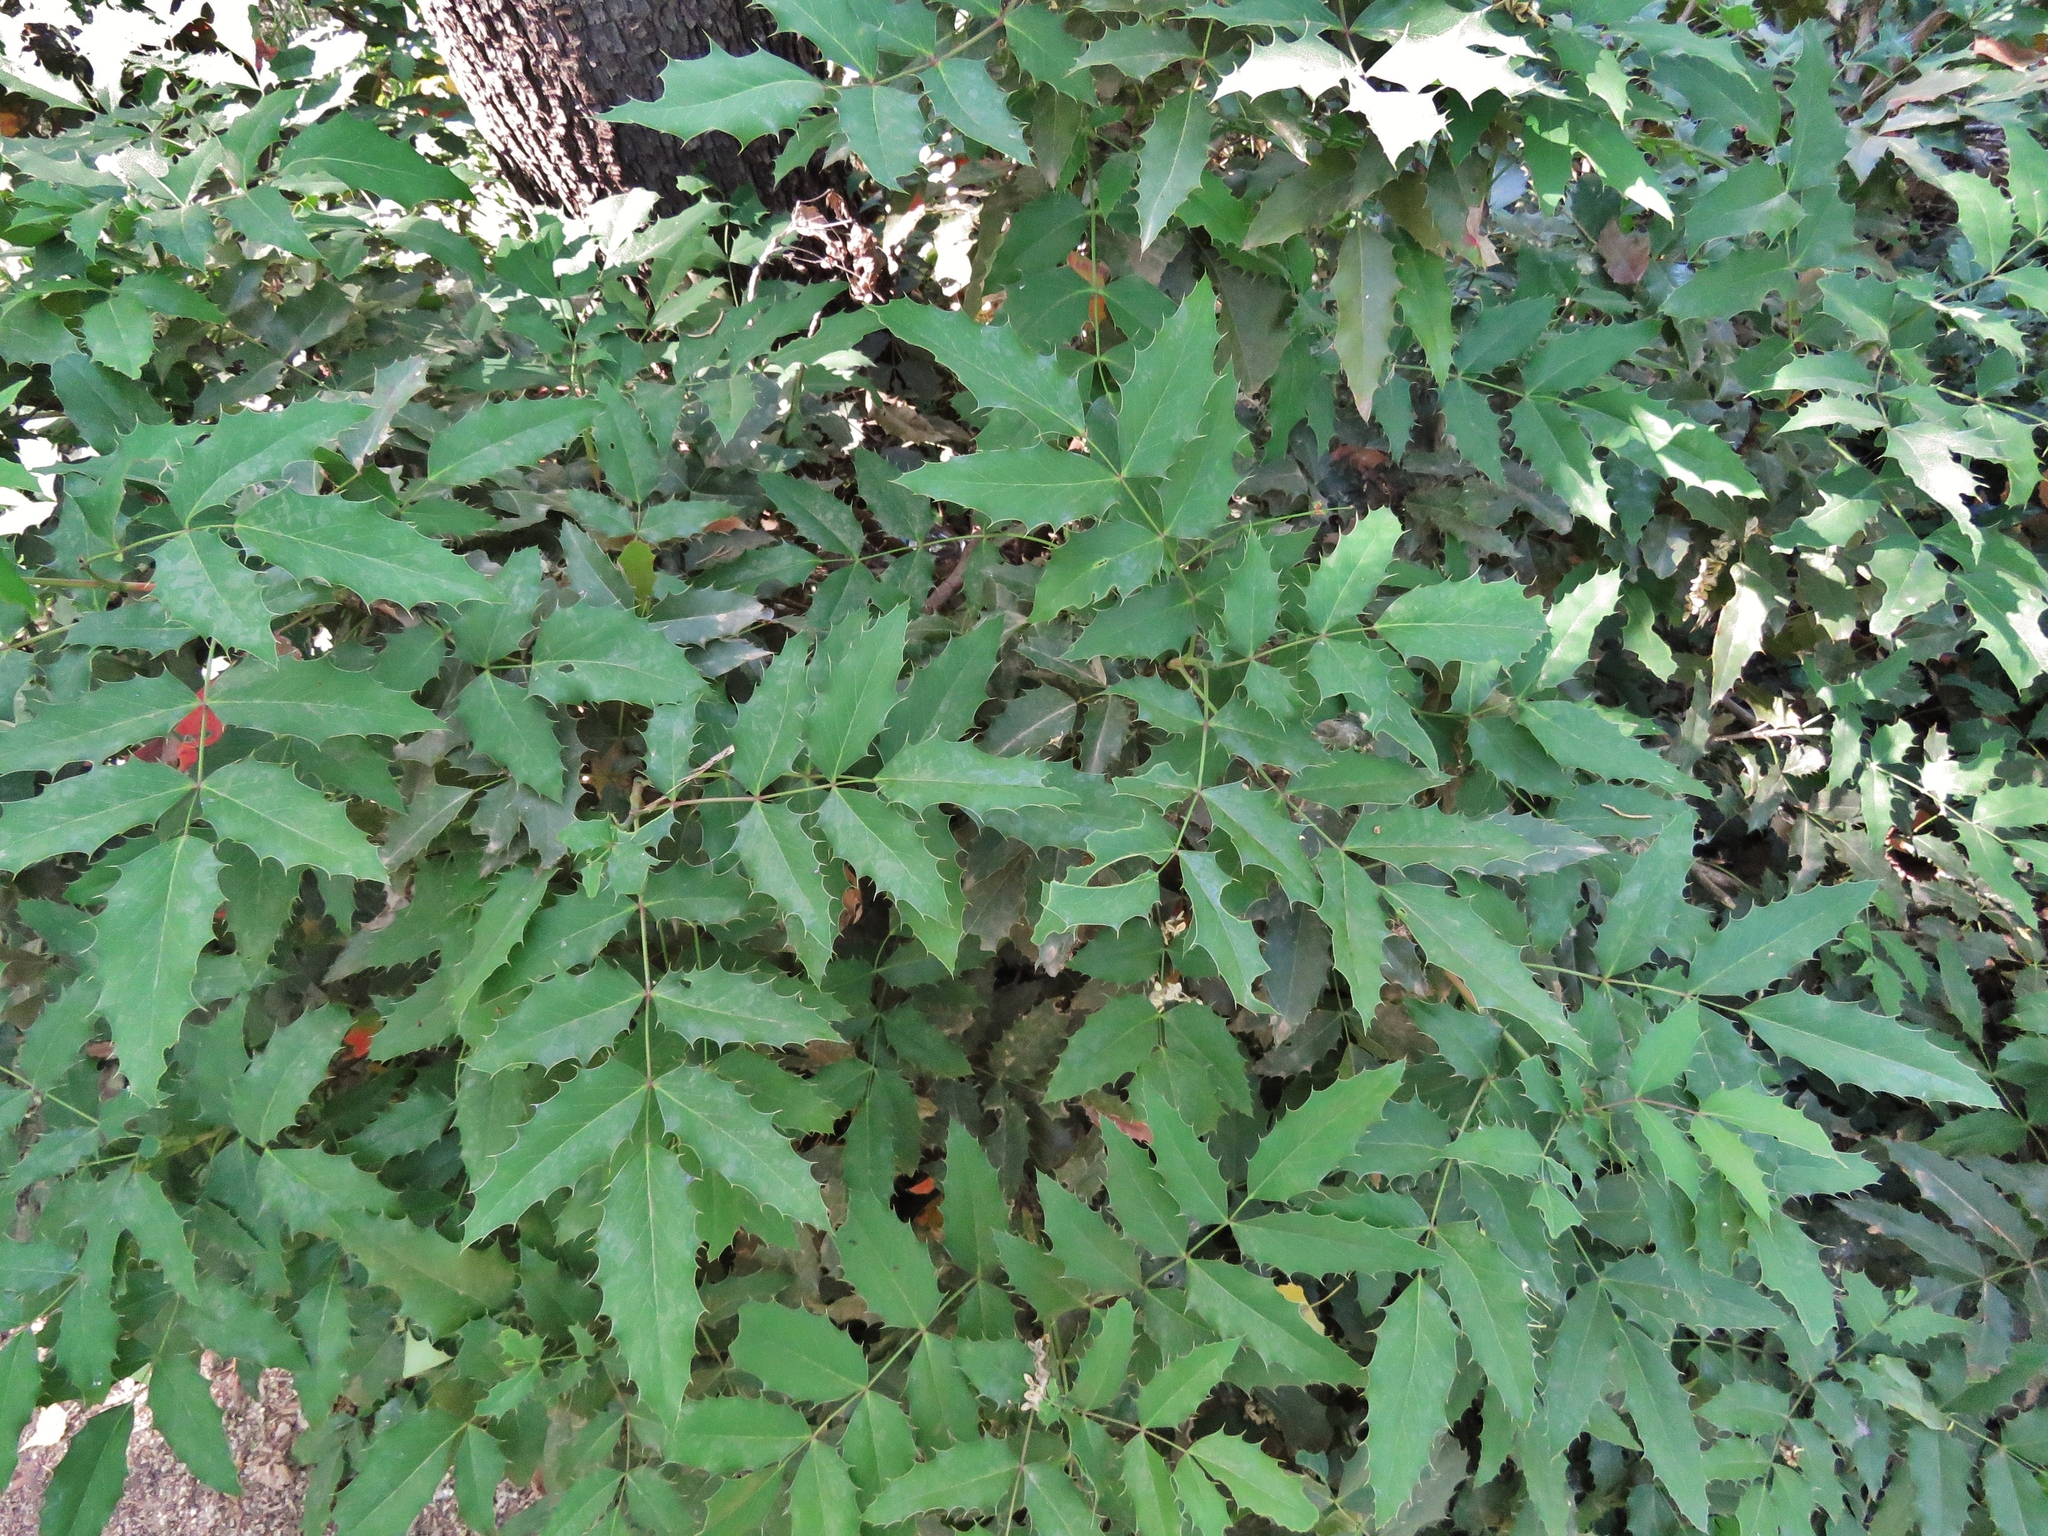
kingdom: Plantae
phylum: Tracheophyta
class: Magnoliopsida
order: Ranunculales
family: Berberidaceae
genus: Mahonia
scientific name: Mahonia aquifolium
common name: Oregon-grape
